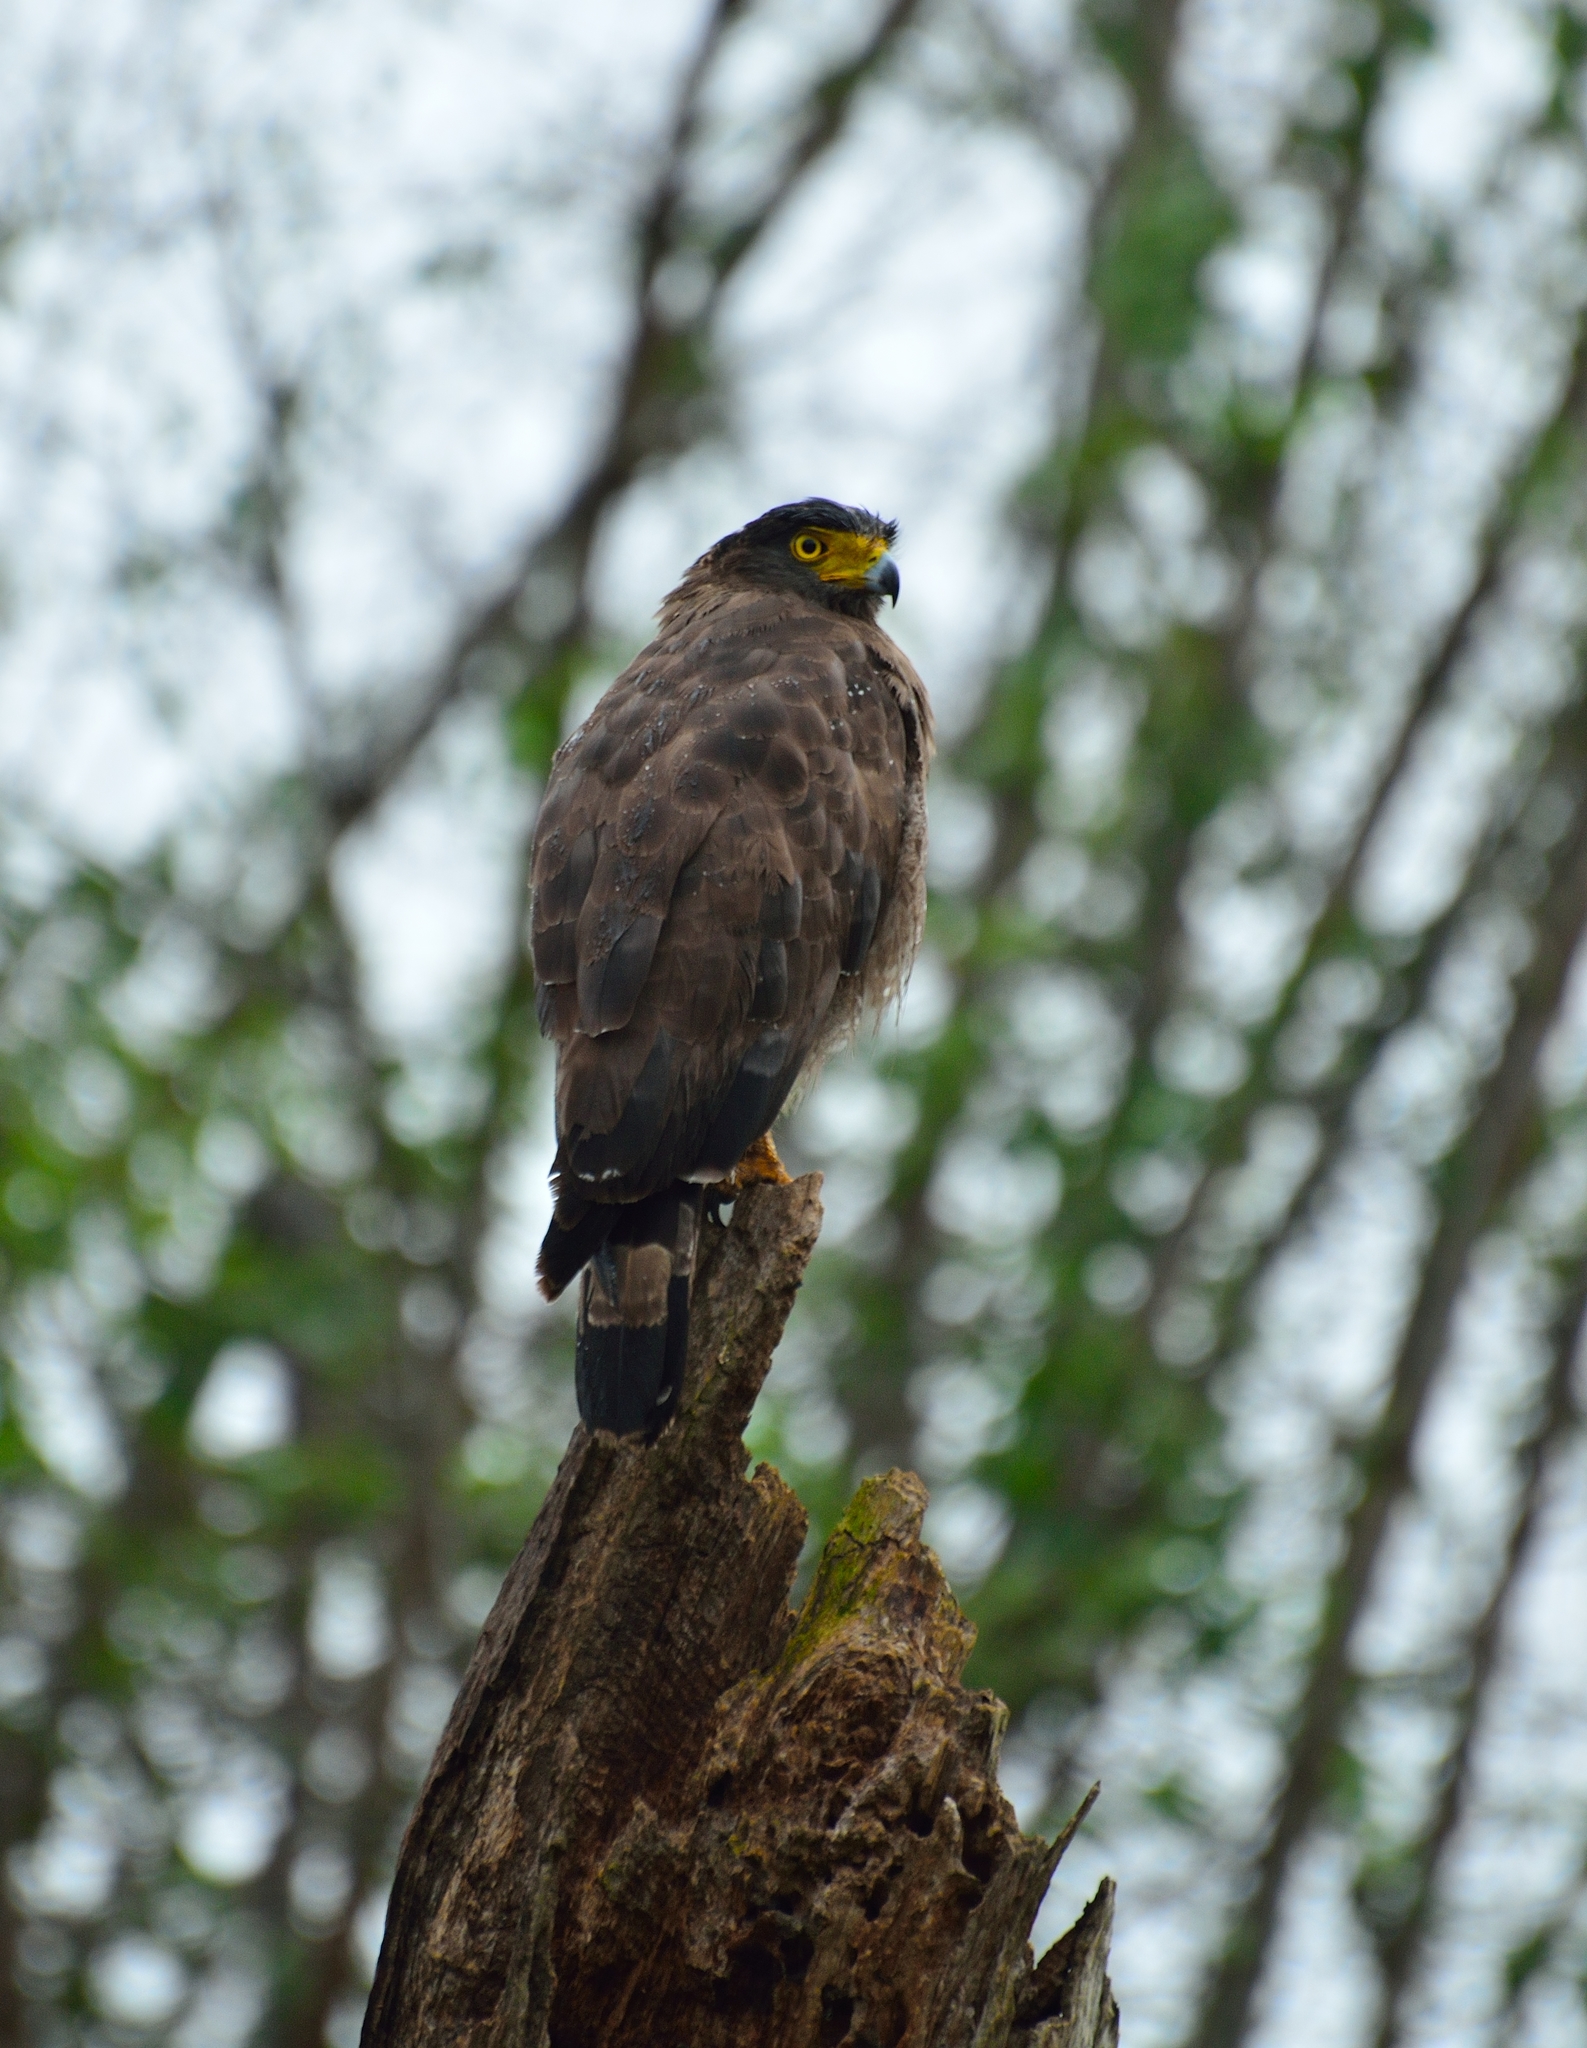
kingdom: Animalia
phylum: Chordata
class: Aves
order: Accipitriformes
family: Accipitridae
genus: Spilornis
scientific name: Spilornis cheela
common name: Crested serpent eagle
